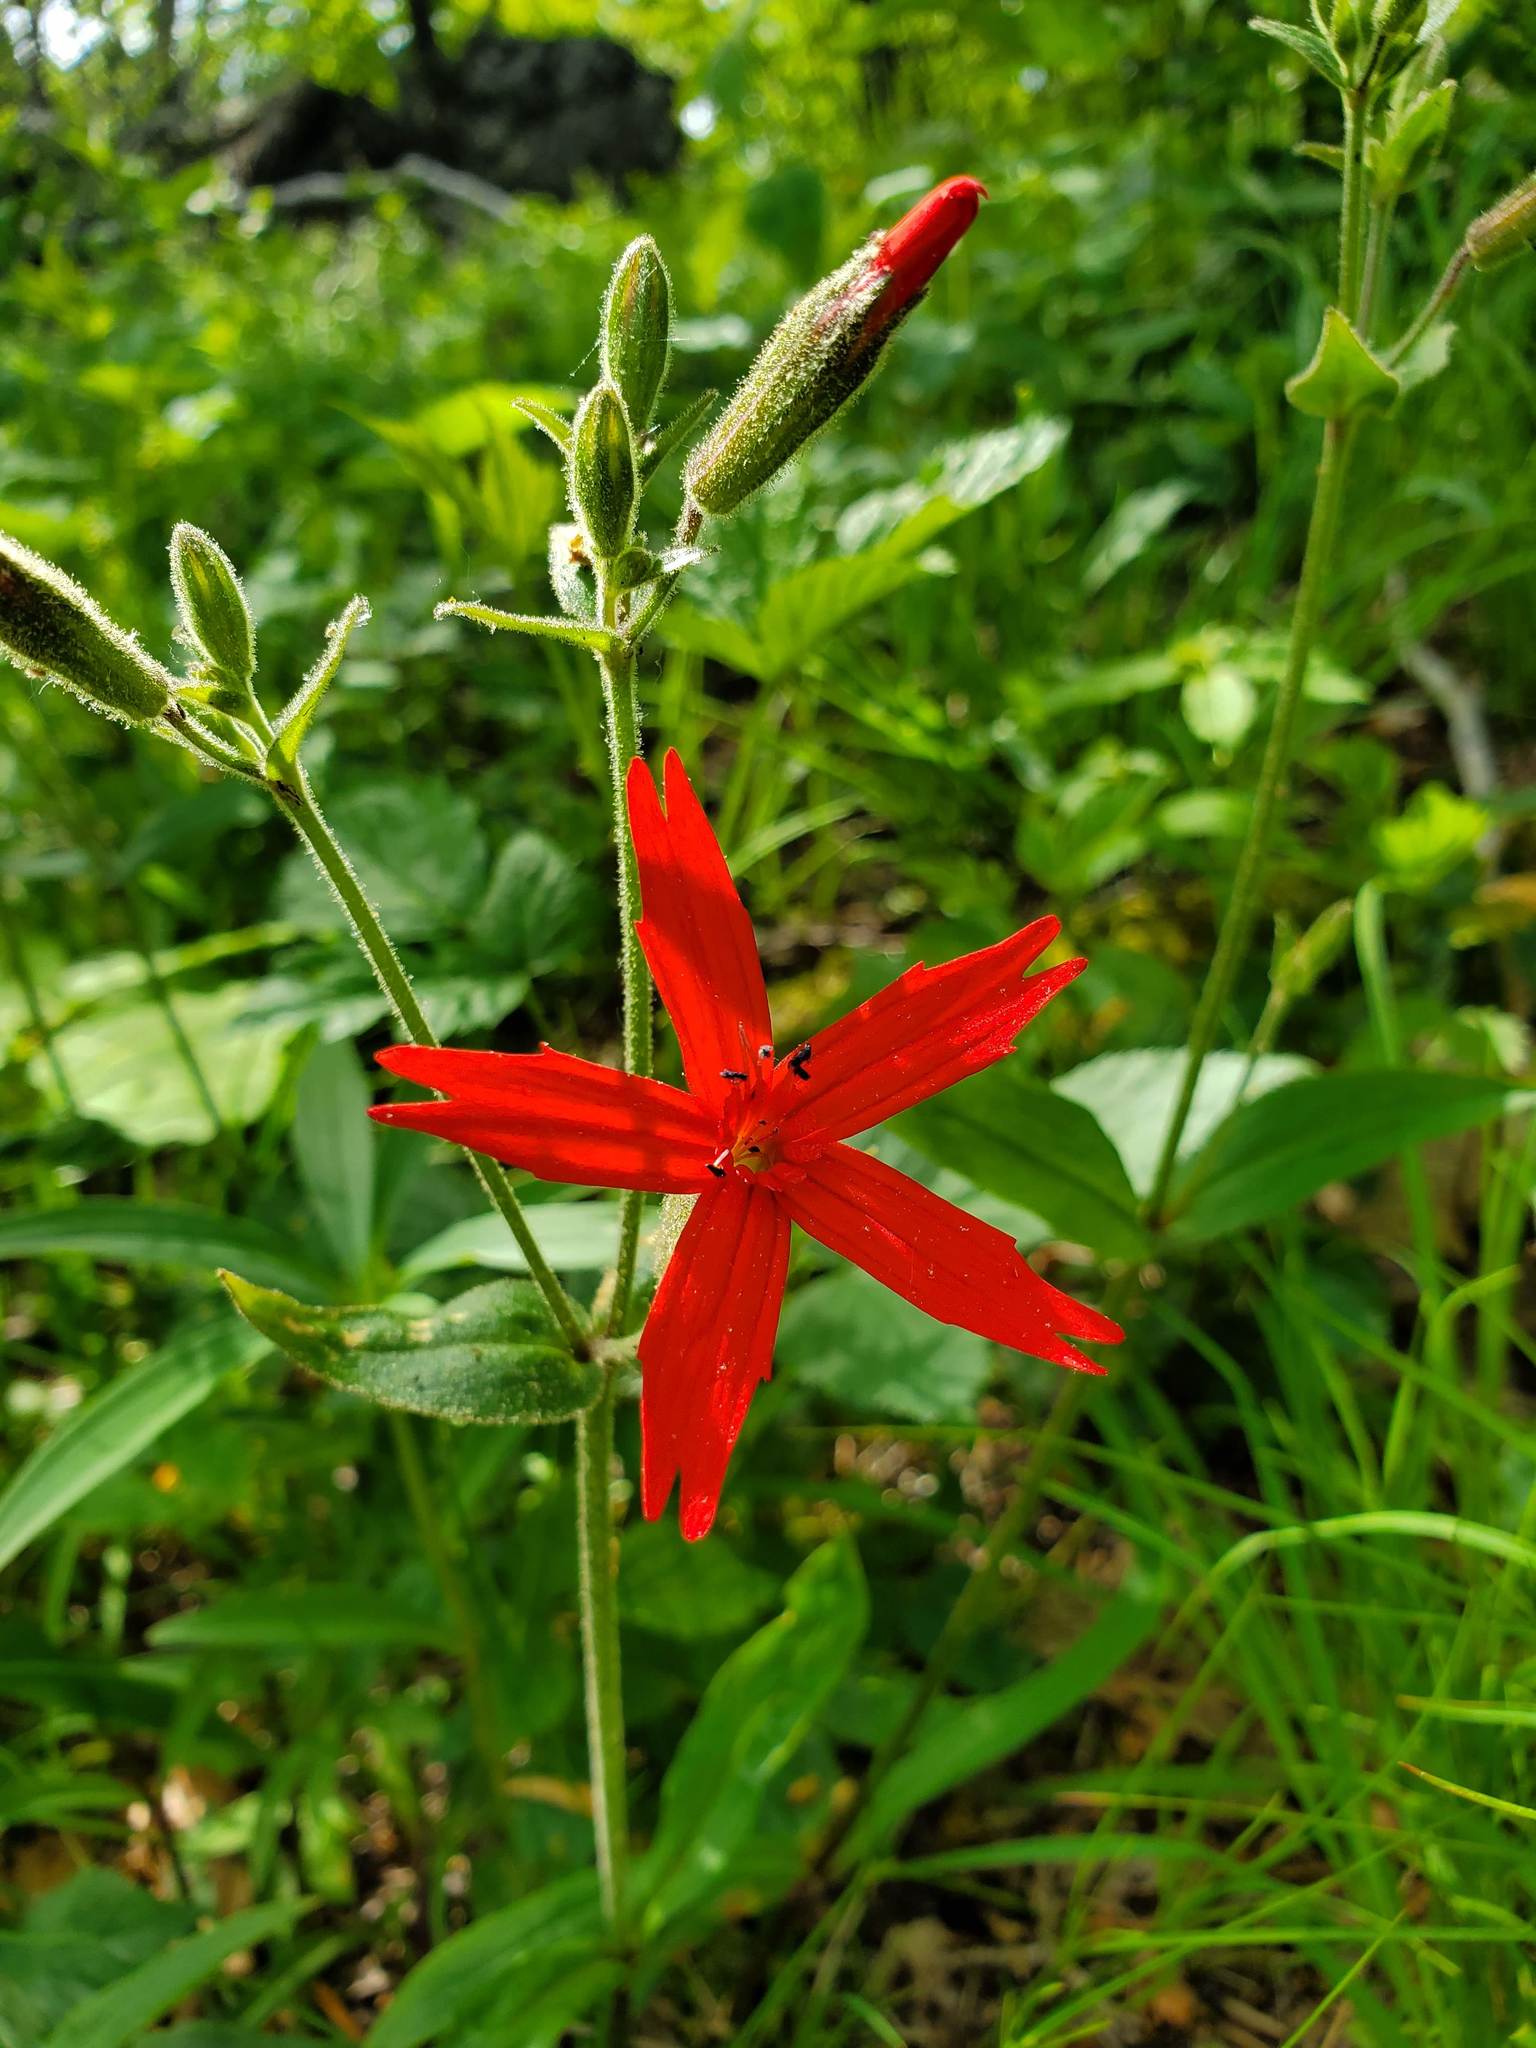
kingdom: Plantae
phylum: Tracheophyta
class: Magnoliopsida
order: Caryophyllales
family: Caryophyllaceae
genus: Silene
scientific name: Silene virginica
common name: Fire-pink
